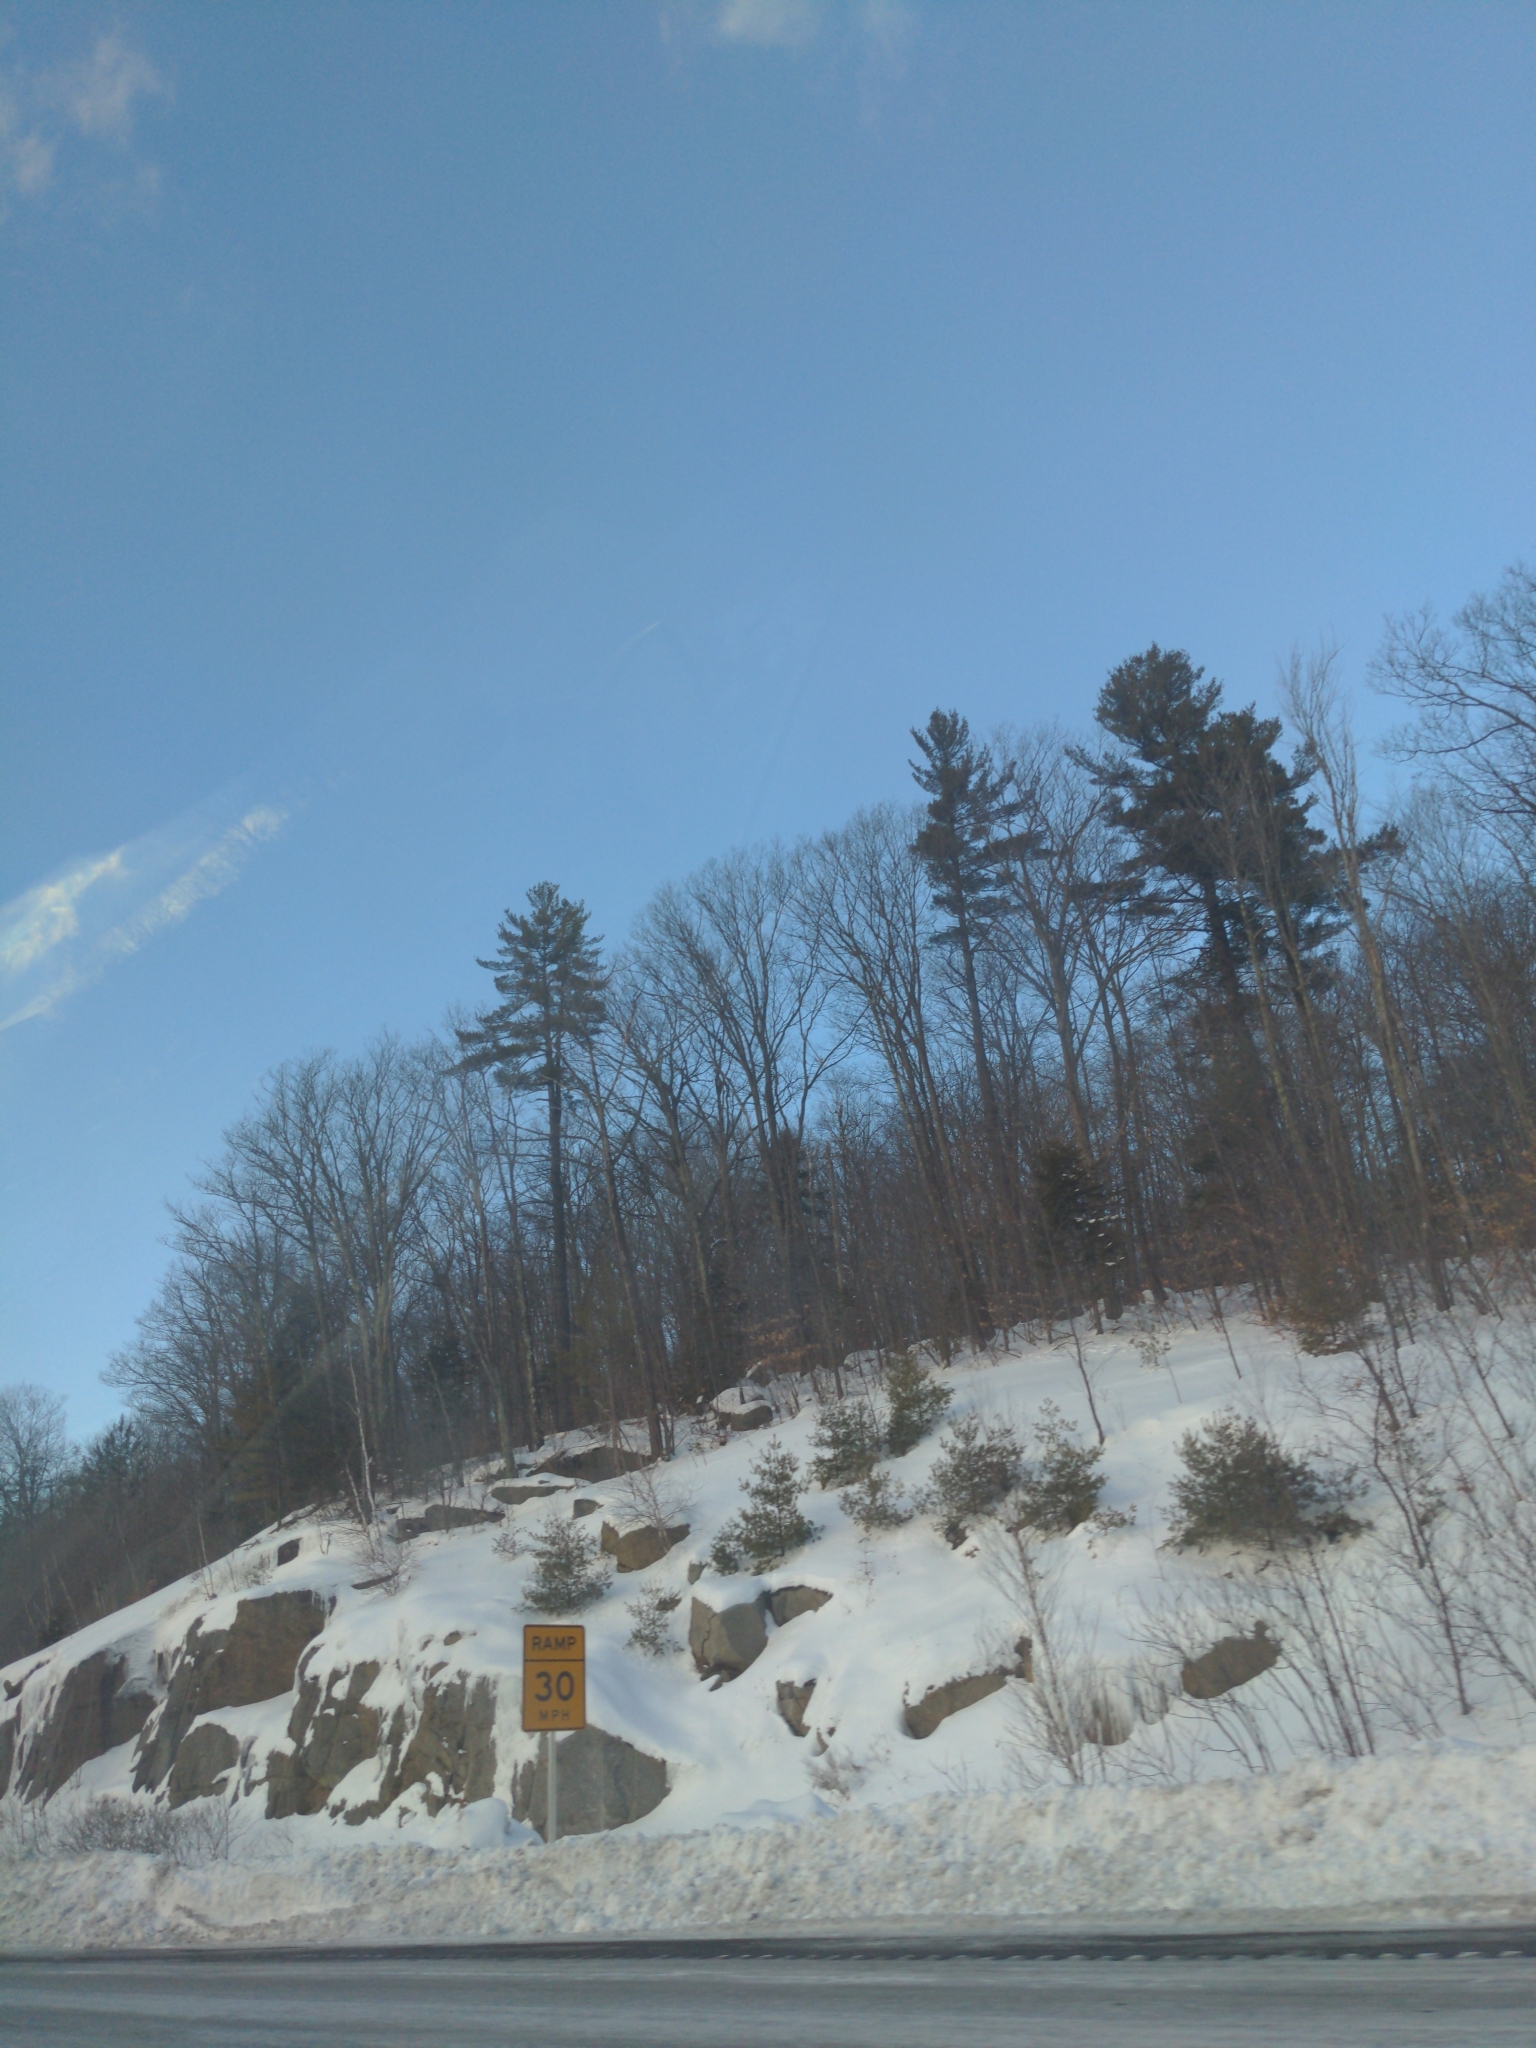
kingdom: Plantae
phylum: Tracheophyta
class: Pinopsida
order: Pinales
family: Pinaceae
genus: Pinus
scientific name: Pinus strobus
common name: Weymouth pine
